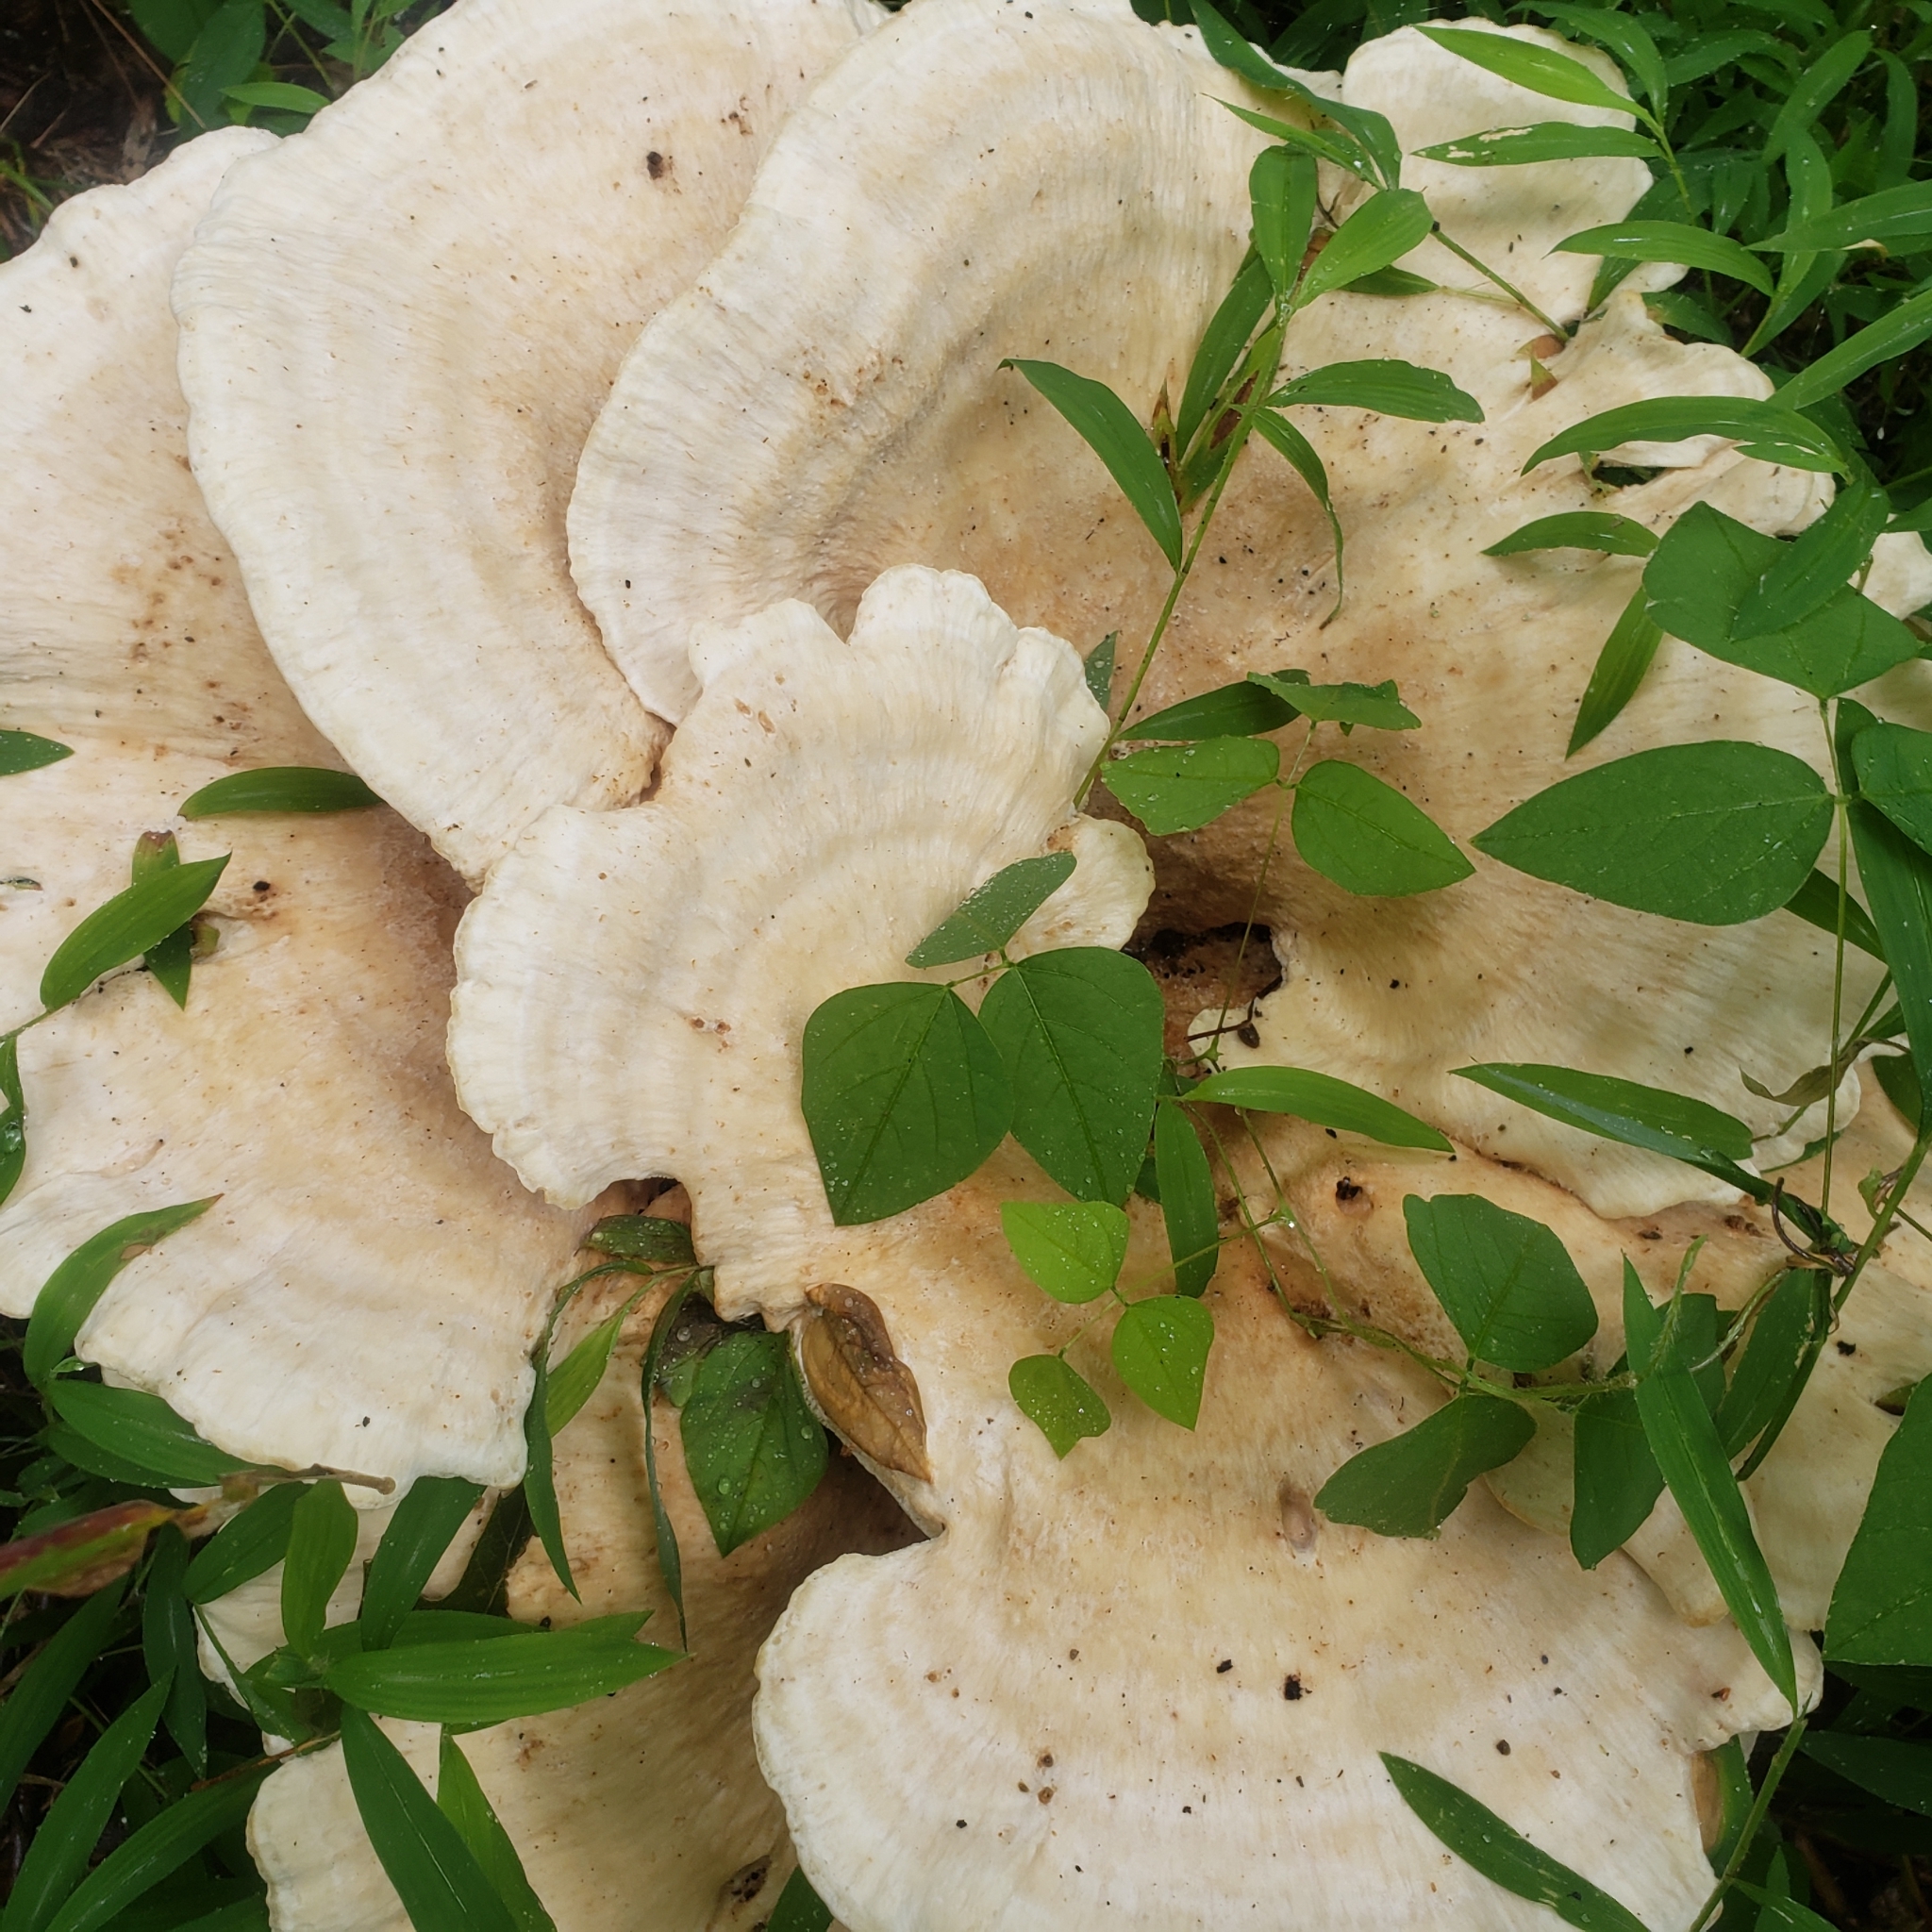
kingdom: Fungi
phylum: Basidiomycota
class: Agaricomycetes
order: Russulales
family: Bondarzewiaceae
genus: Bondarzewia
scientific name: Bondarzewia berkeleyi
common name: Berkeley's polypore
